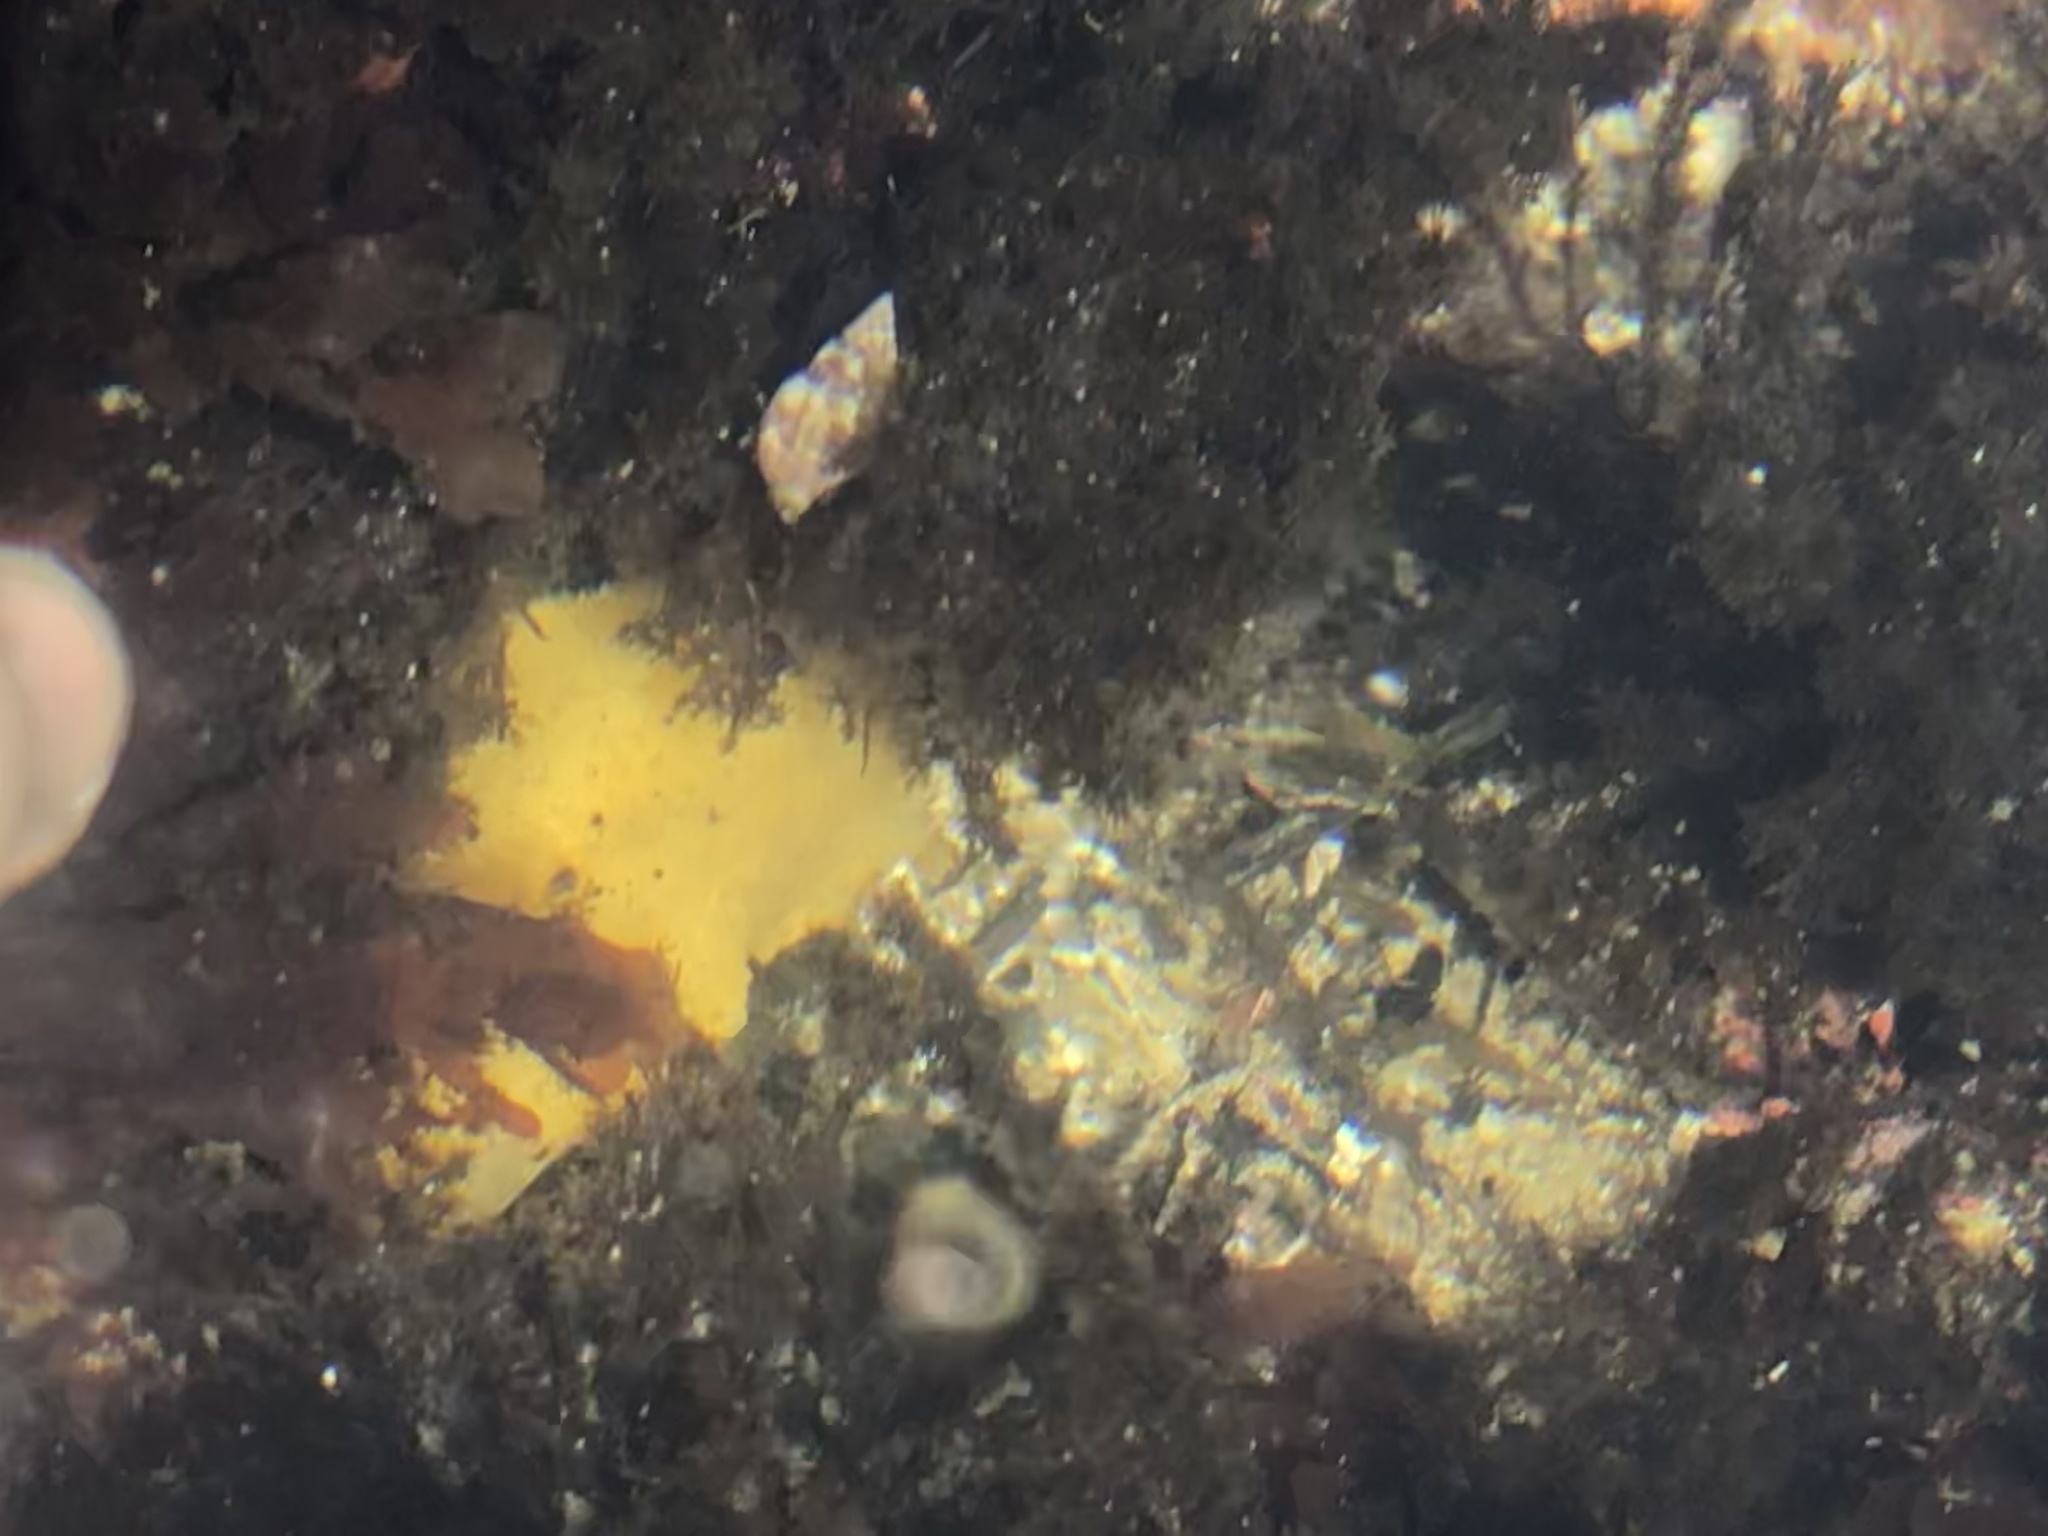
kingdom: Animalia
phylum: Mollusca
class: Gastropoda
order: Nudibranchia
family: Dorididae
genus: Doris
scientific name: Doris montereyensis
